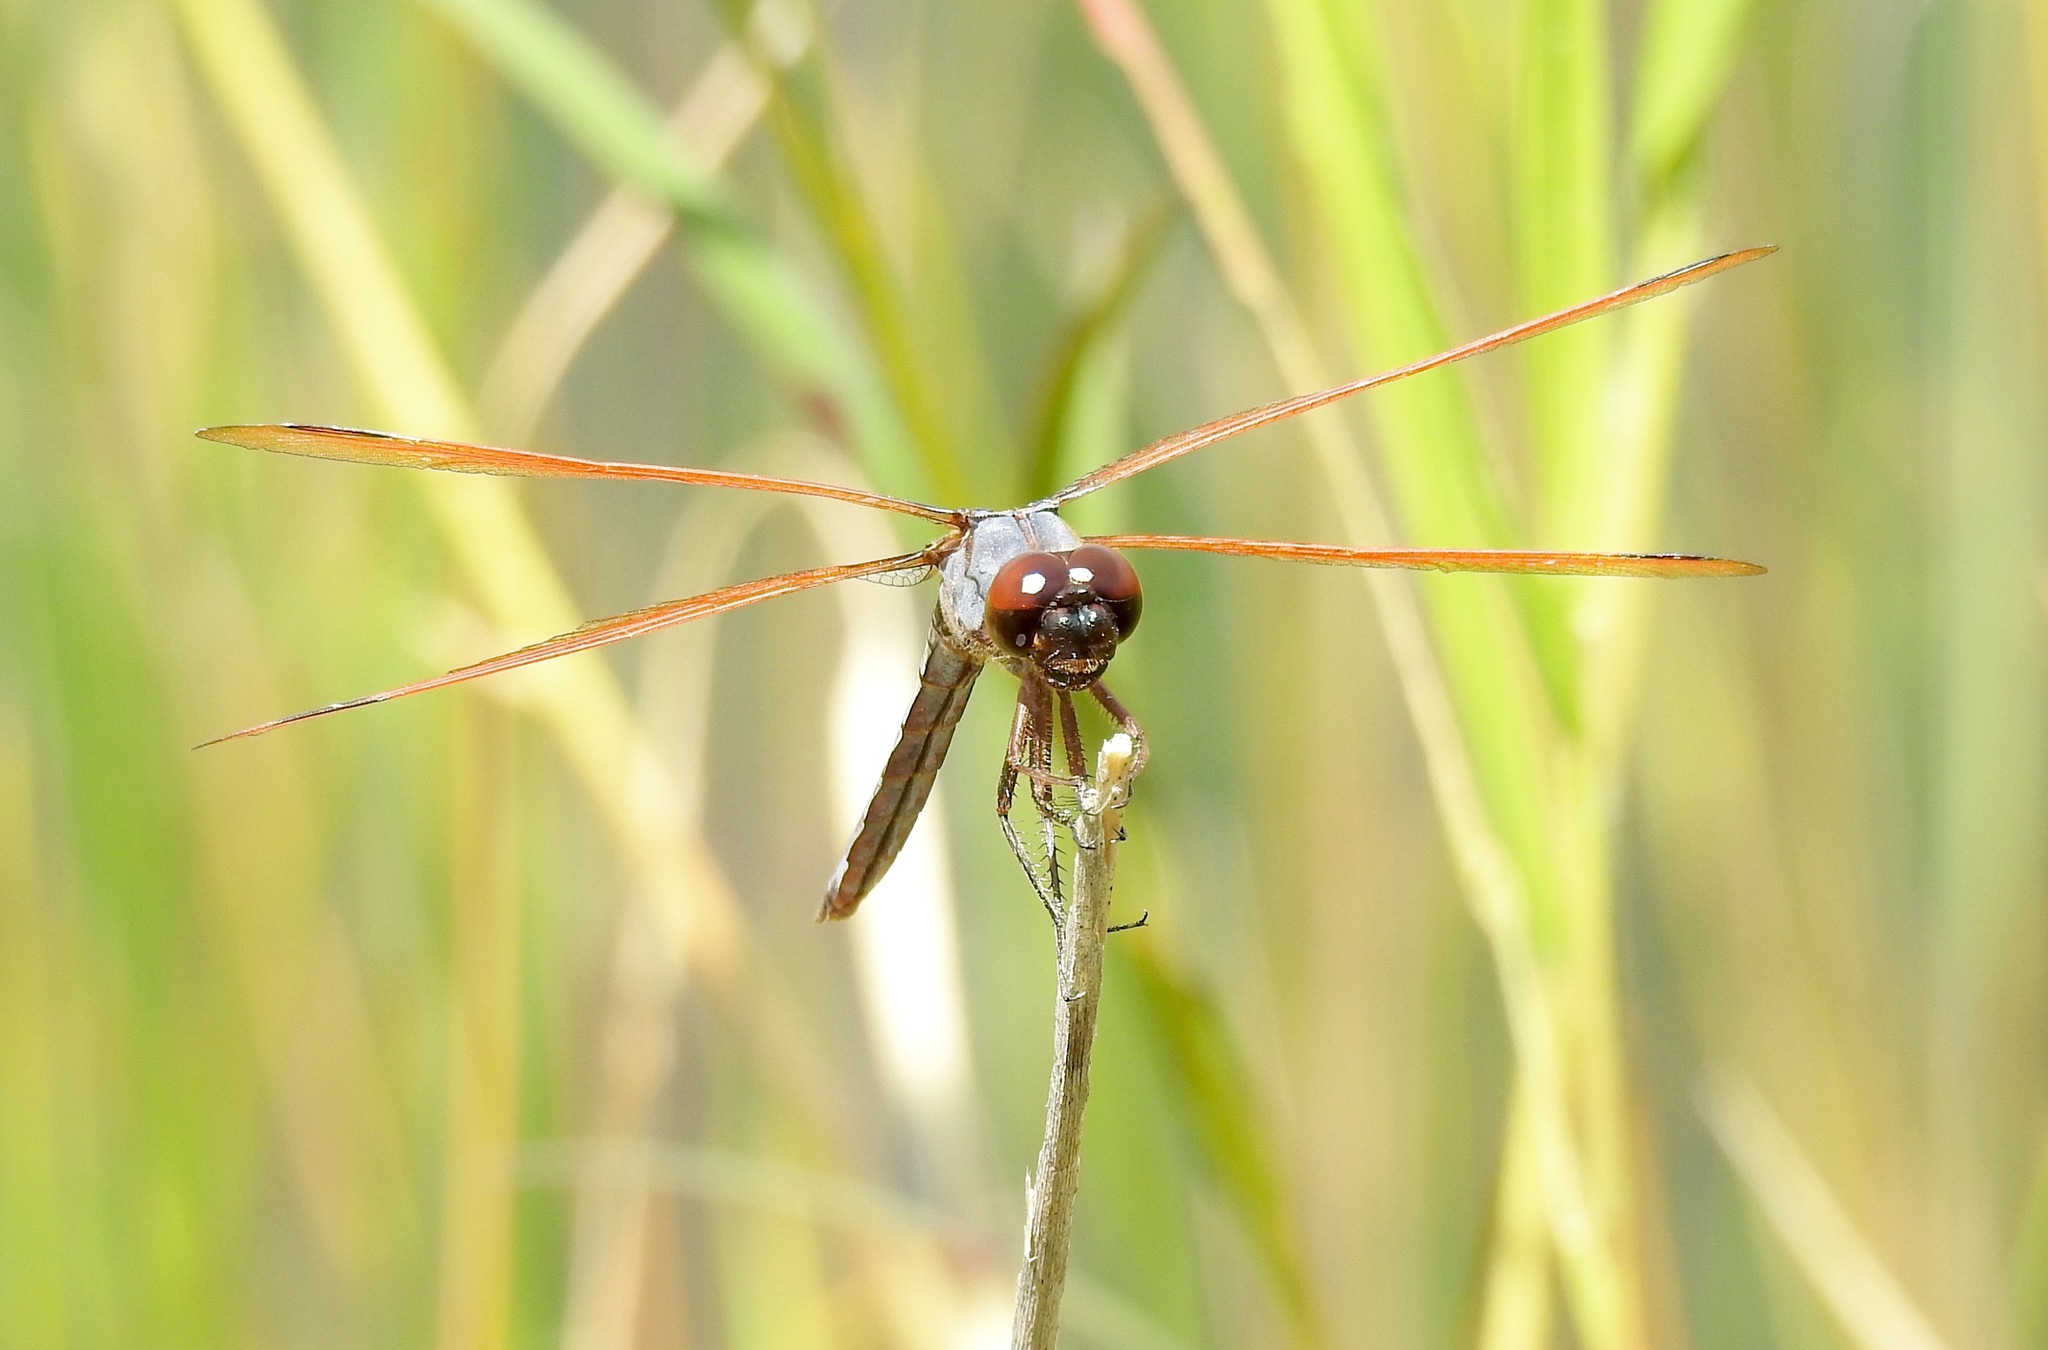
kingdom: Animalia
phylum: Arthropoda
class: Insecta
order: Odonata
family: Libellulidae
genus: Libellula
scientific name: Libellula jesseana
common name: Purple skimmer
